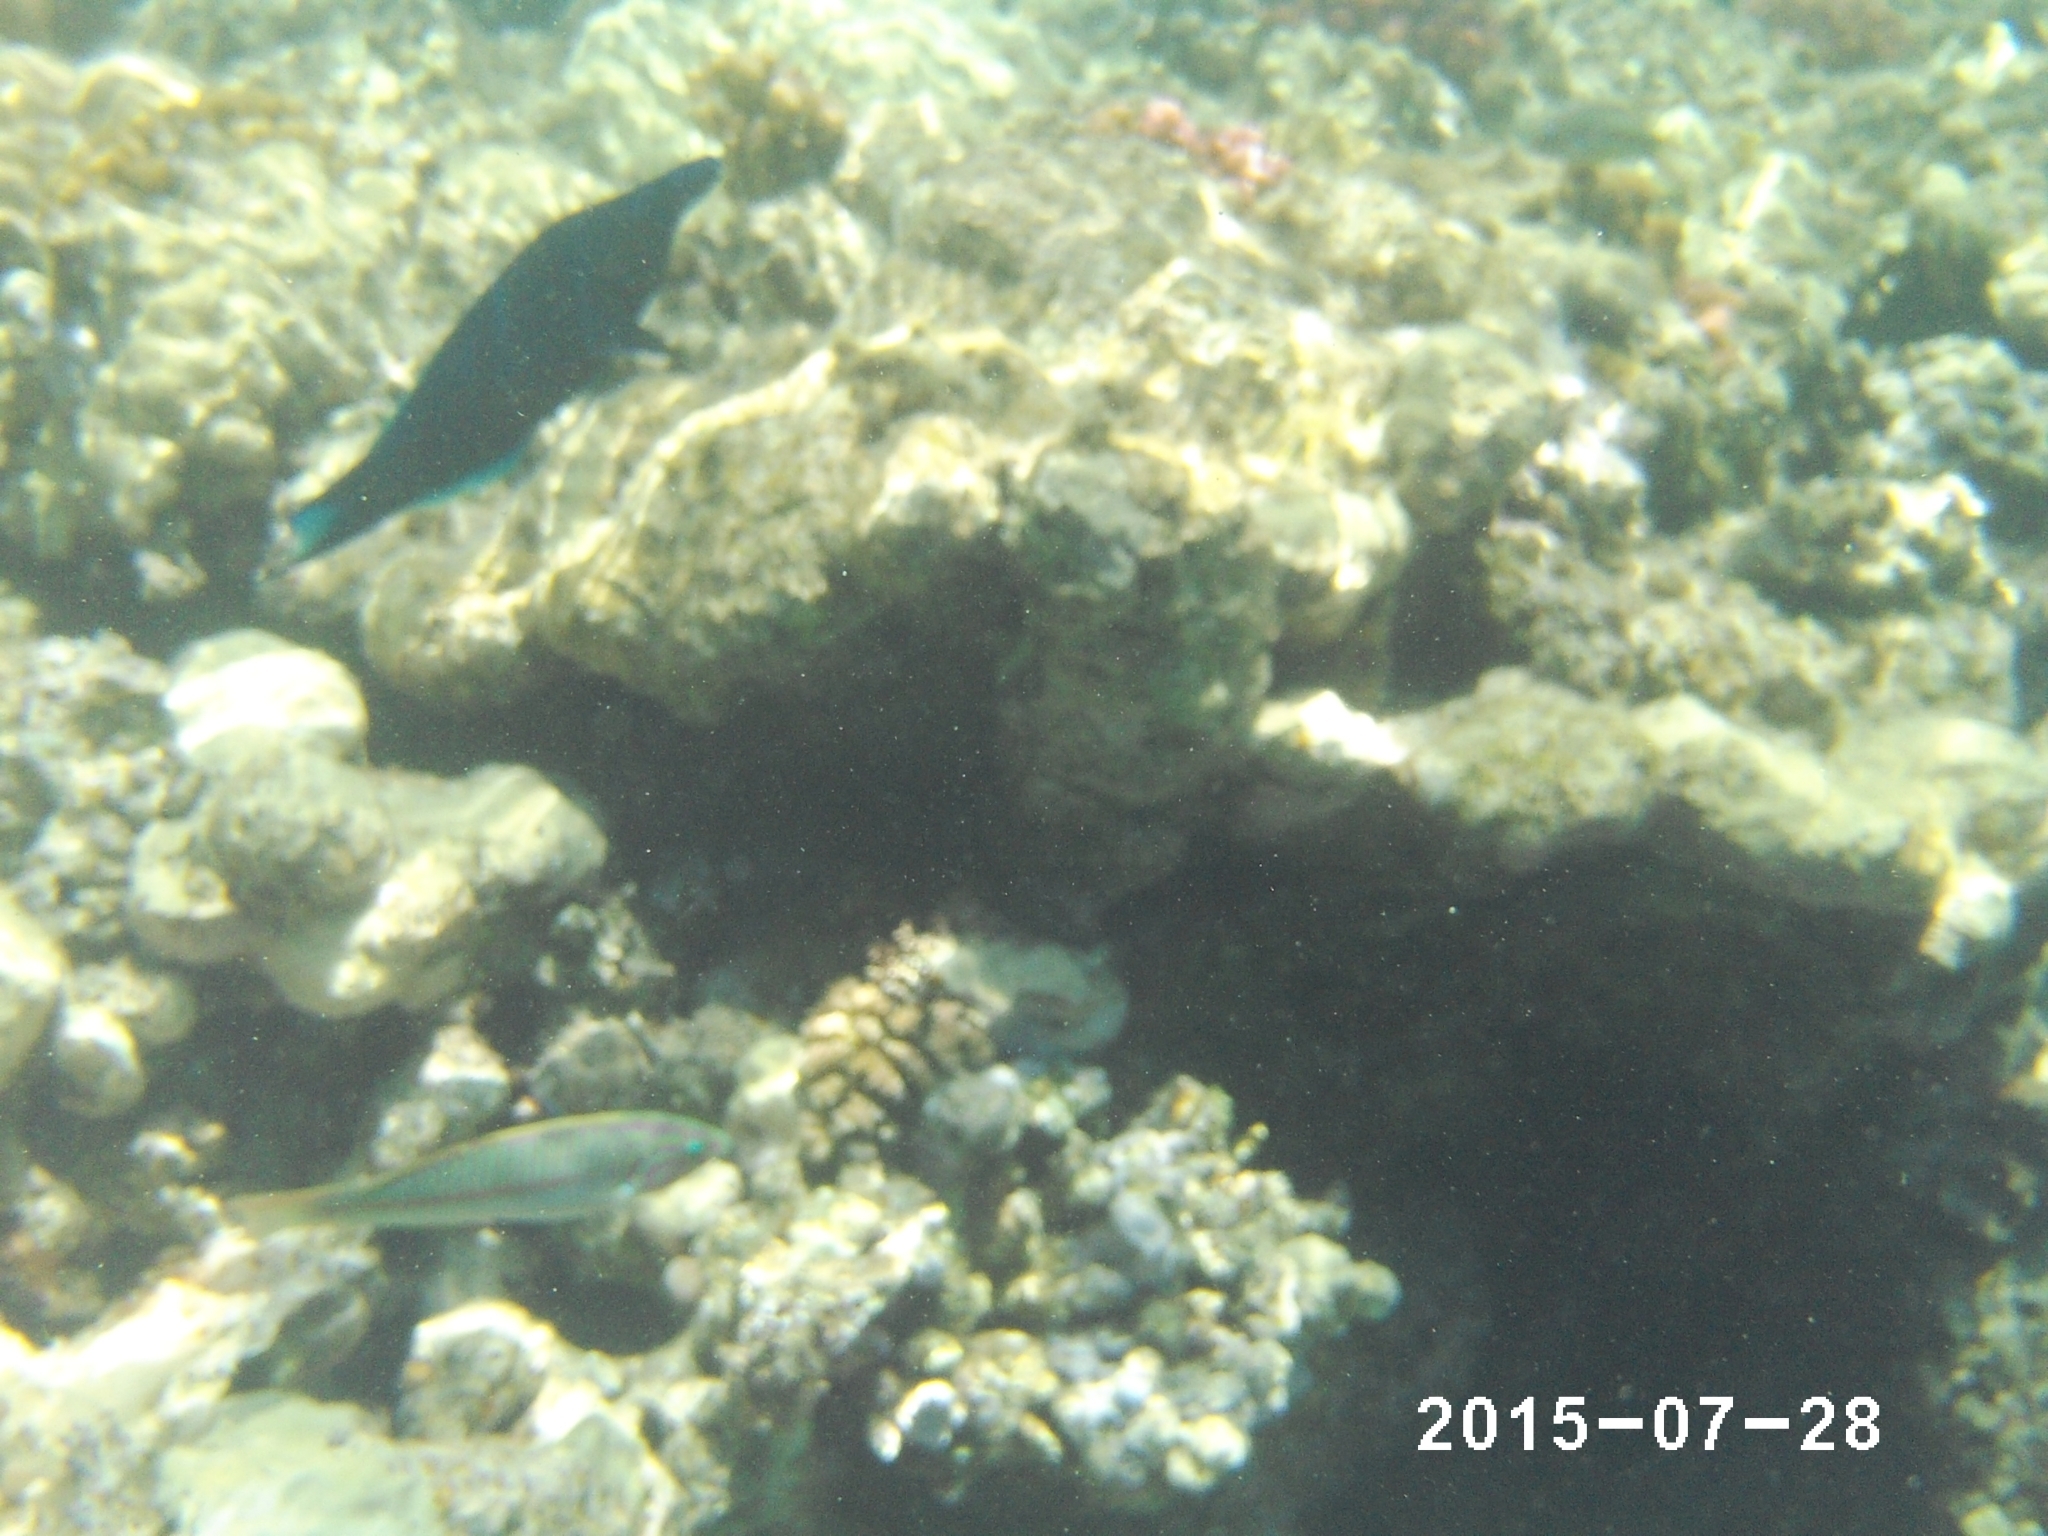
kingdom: Animalia
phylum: Chordata
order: Perciformes
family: Labridae
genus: Gomphosus
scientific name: Gomphosus klunzingeri
